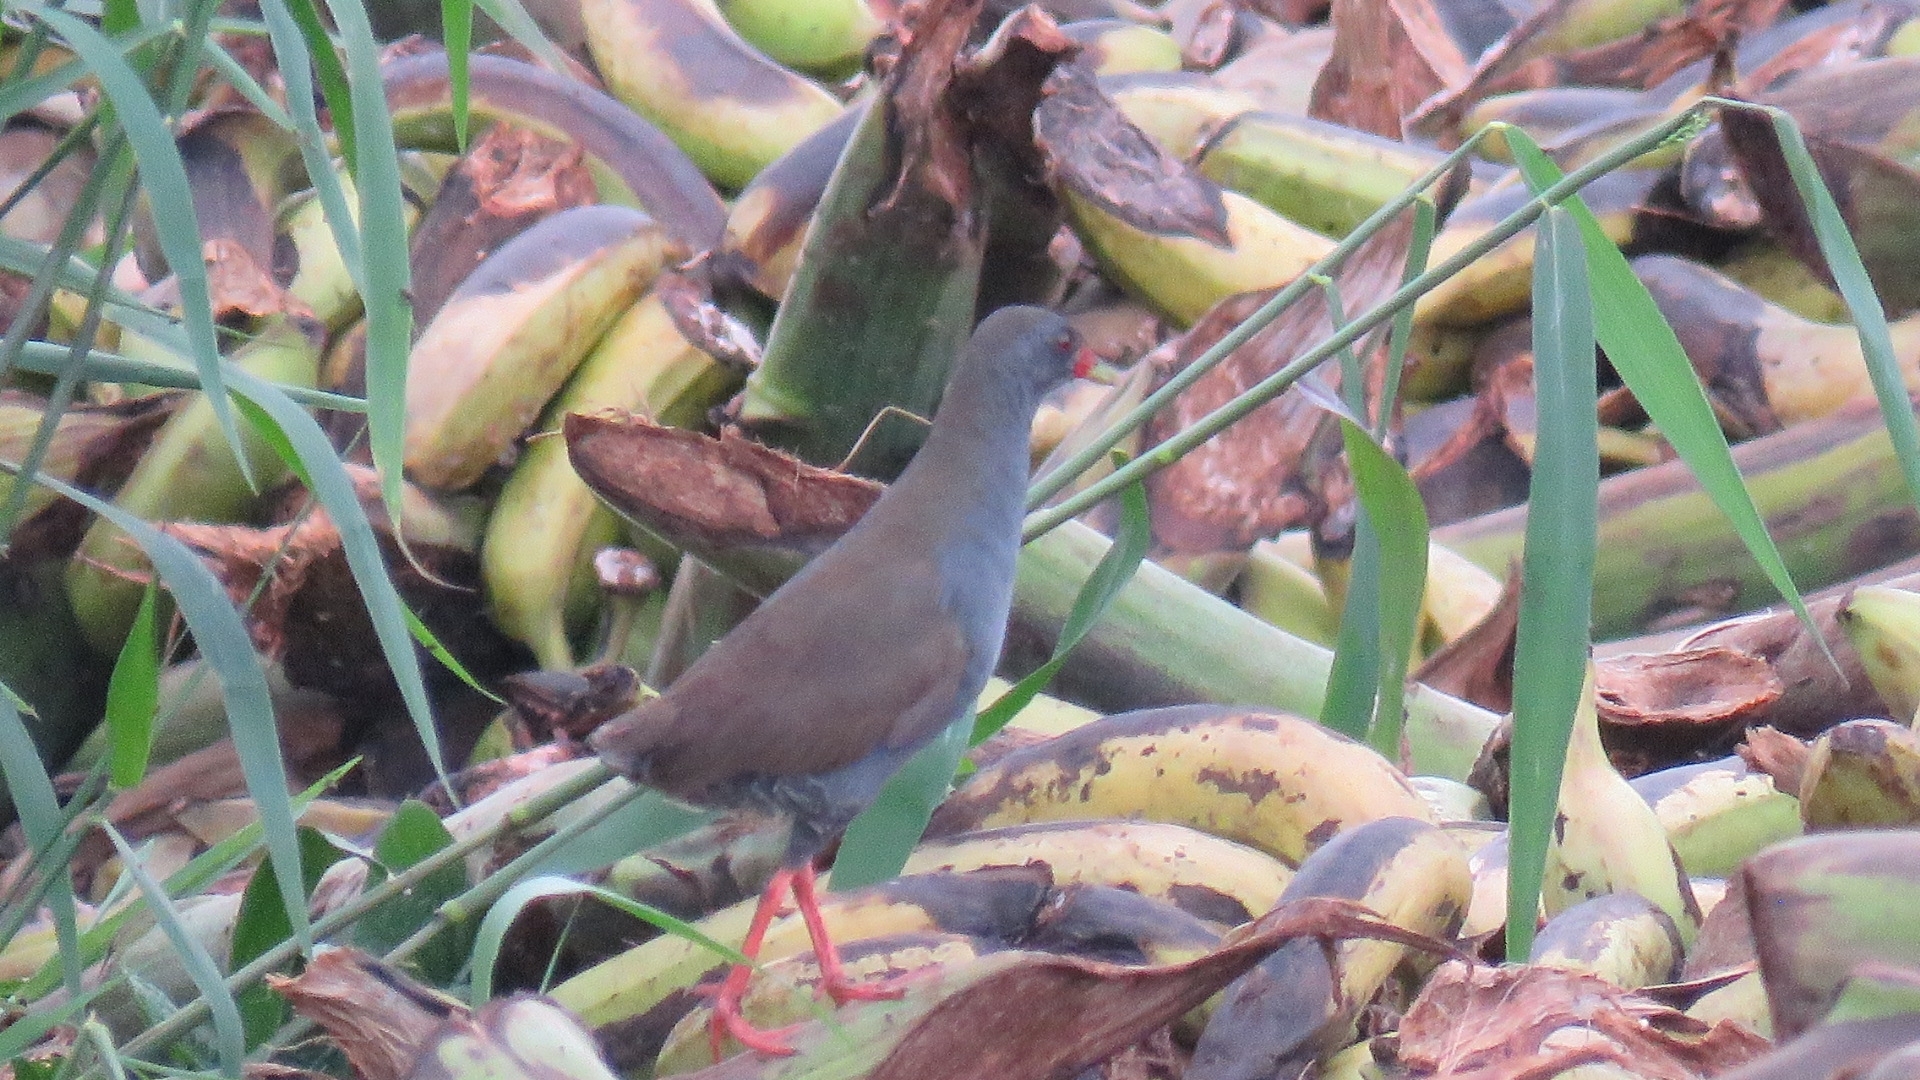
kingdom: Animalia
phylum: Chordata
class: Aves
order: Gruiformes
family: Rallidae
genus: Neocrex
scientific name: Neocrex erythrops
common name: Paint-billed crake
